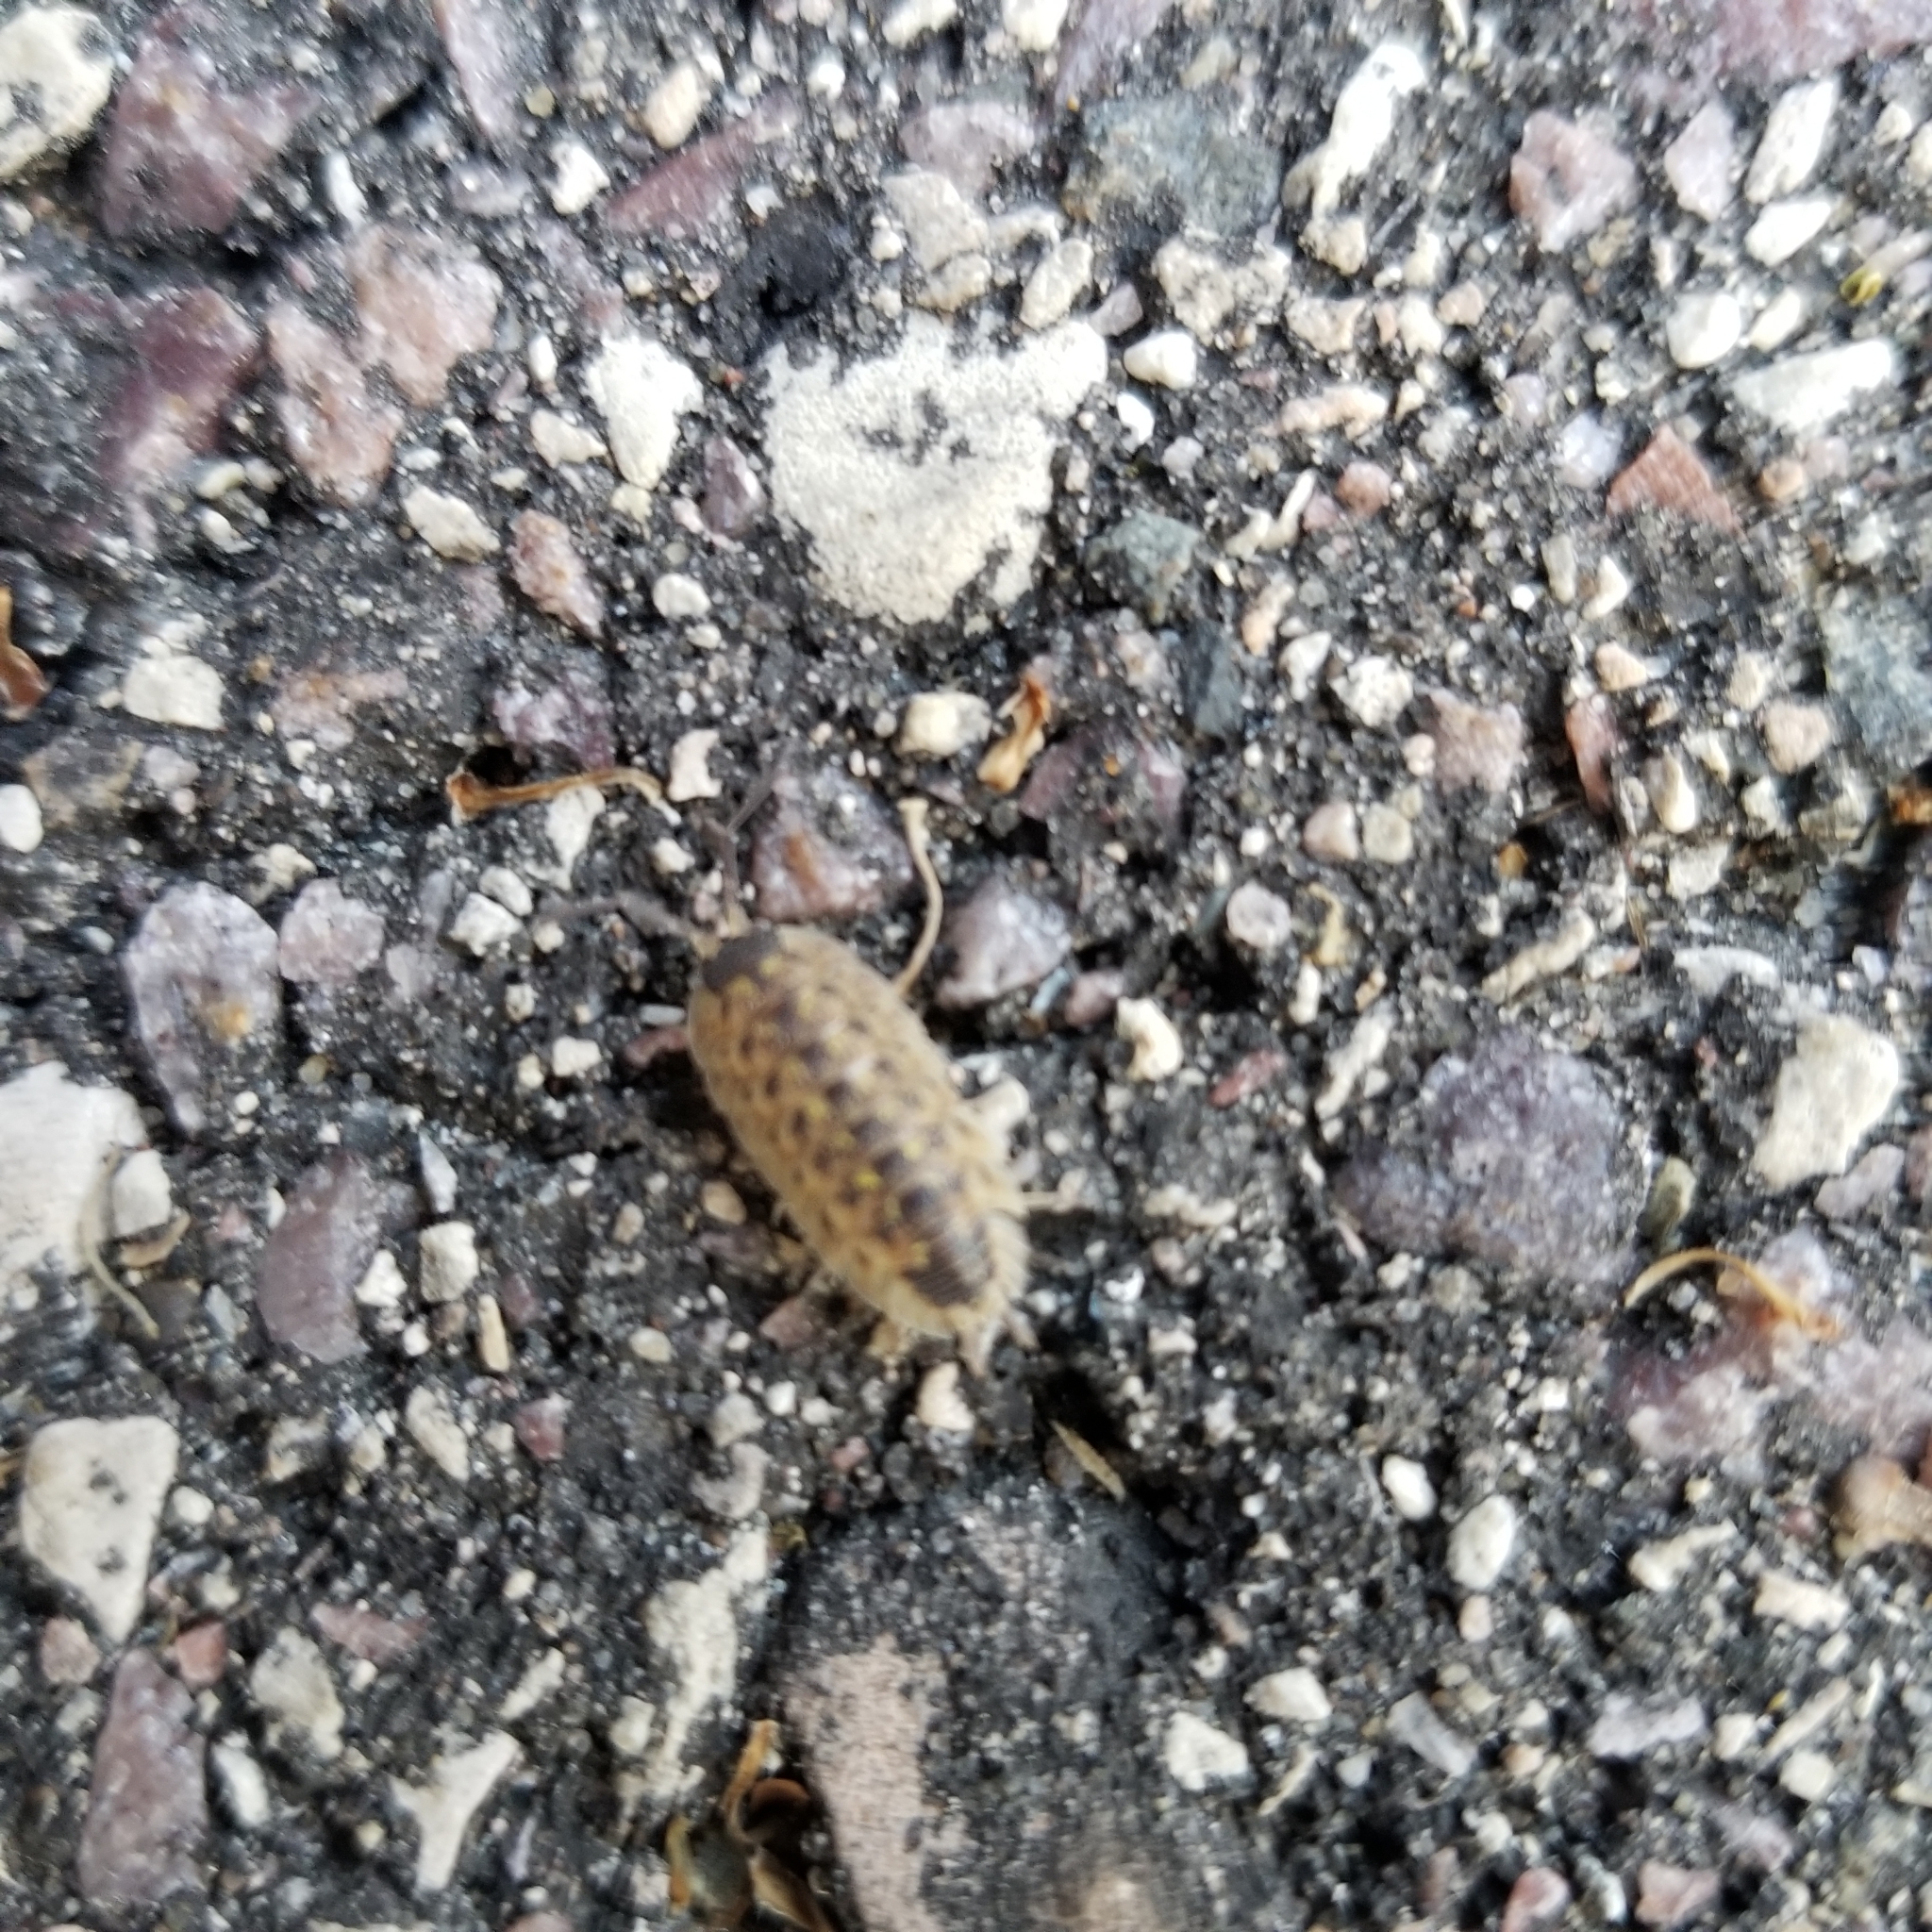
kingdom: Animalia
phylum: Arthropoda
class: Malacostraca
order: Isopoda
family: Porcellionidae
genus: Porcellio
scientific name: Porcellio spinicornis
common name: Painted woodlouse
